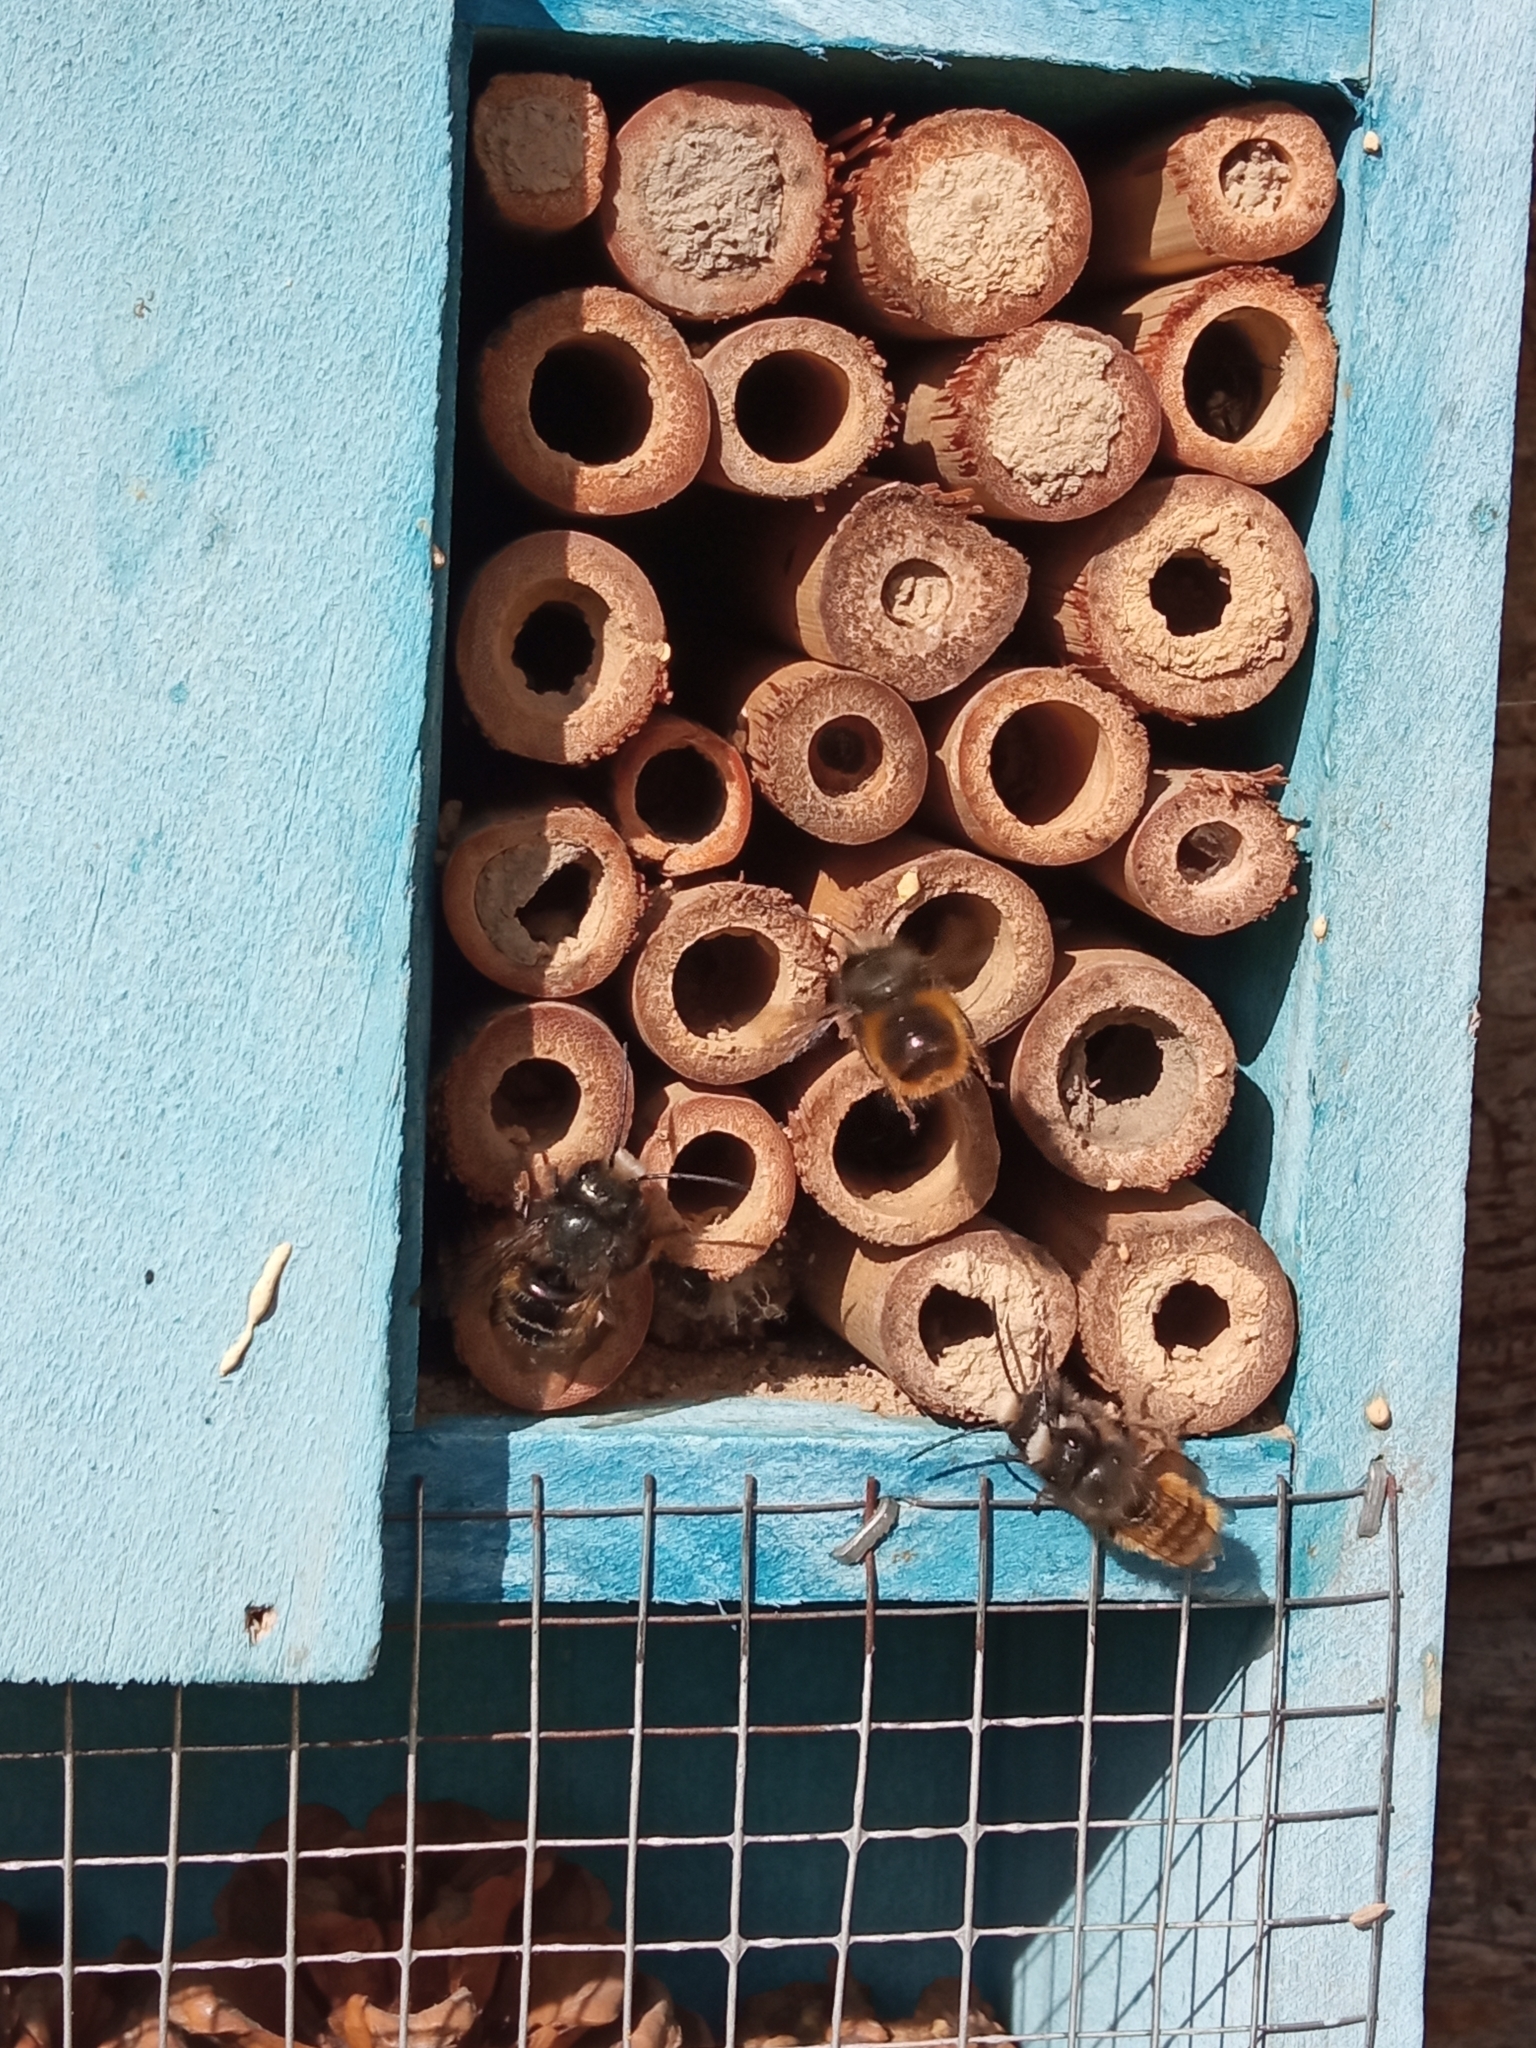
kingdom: Animalia
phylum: Arthropoda
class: Insecta
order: Hymenoptera
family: Megachilidae
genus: Osmia
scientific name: Osmia cornuta
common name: Mason bee
